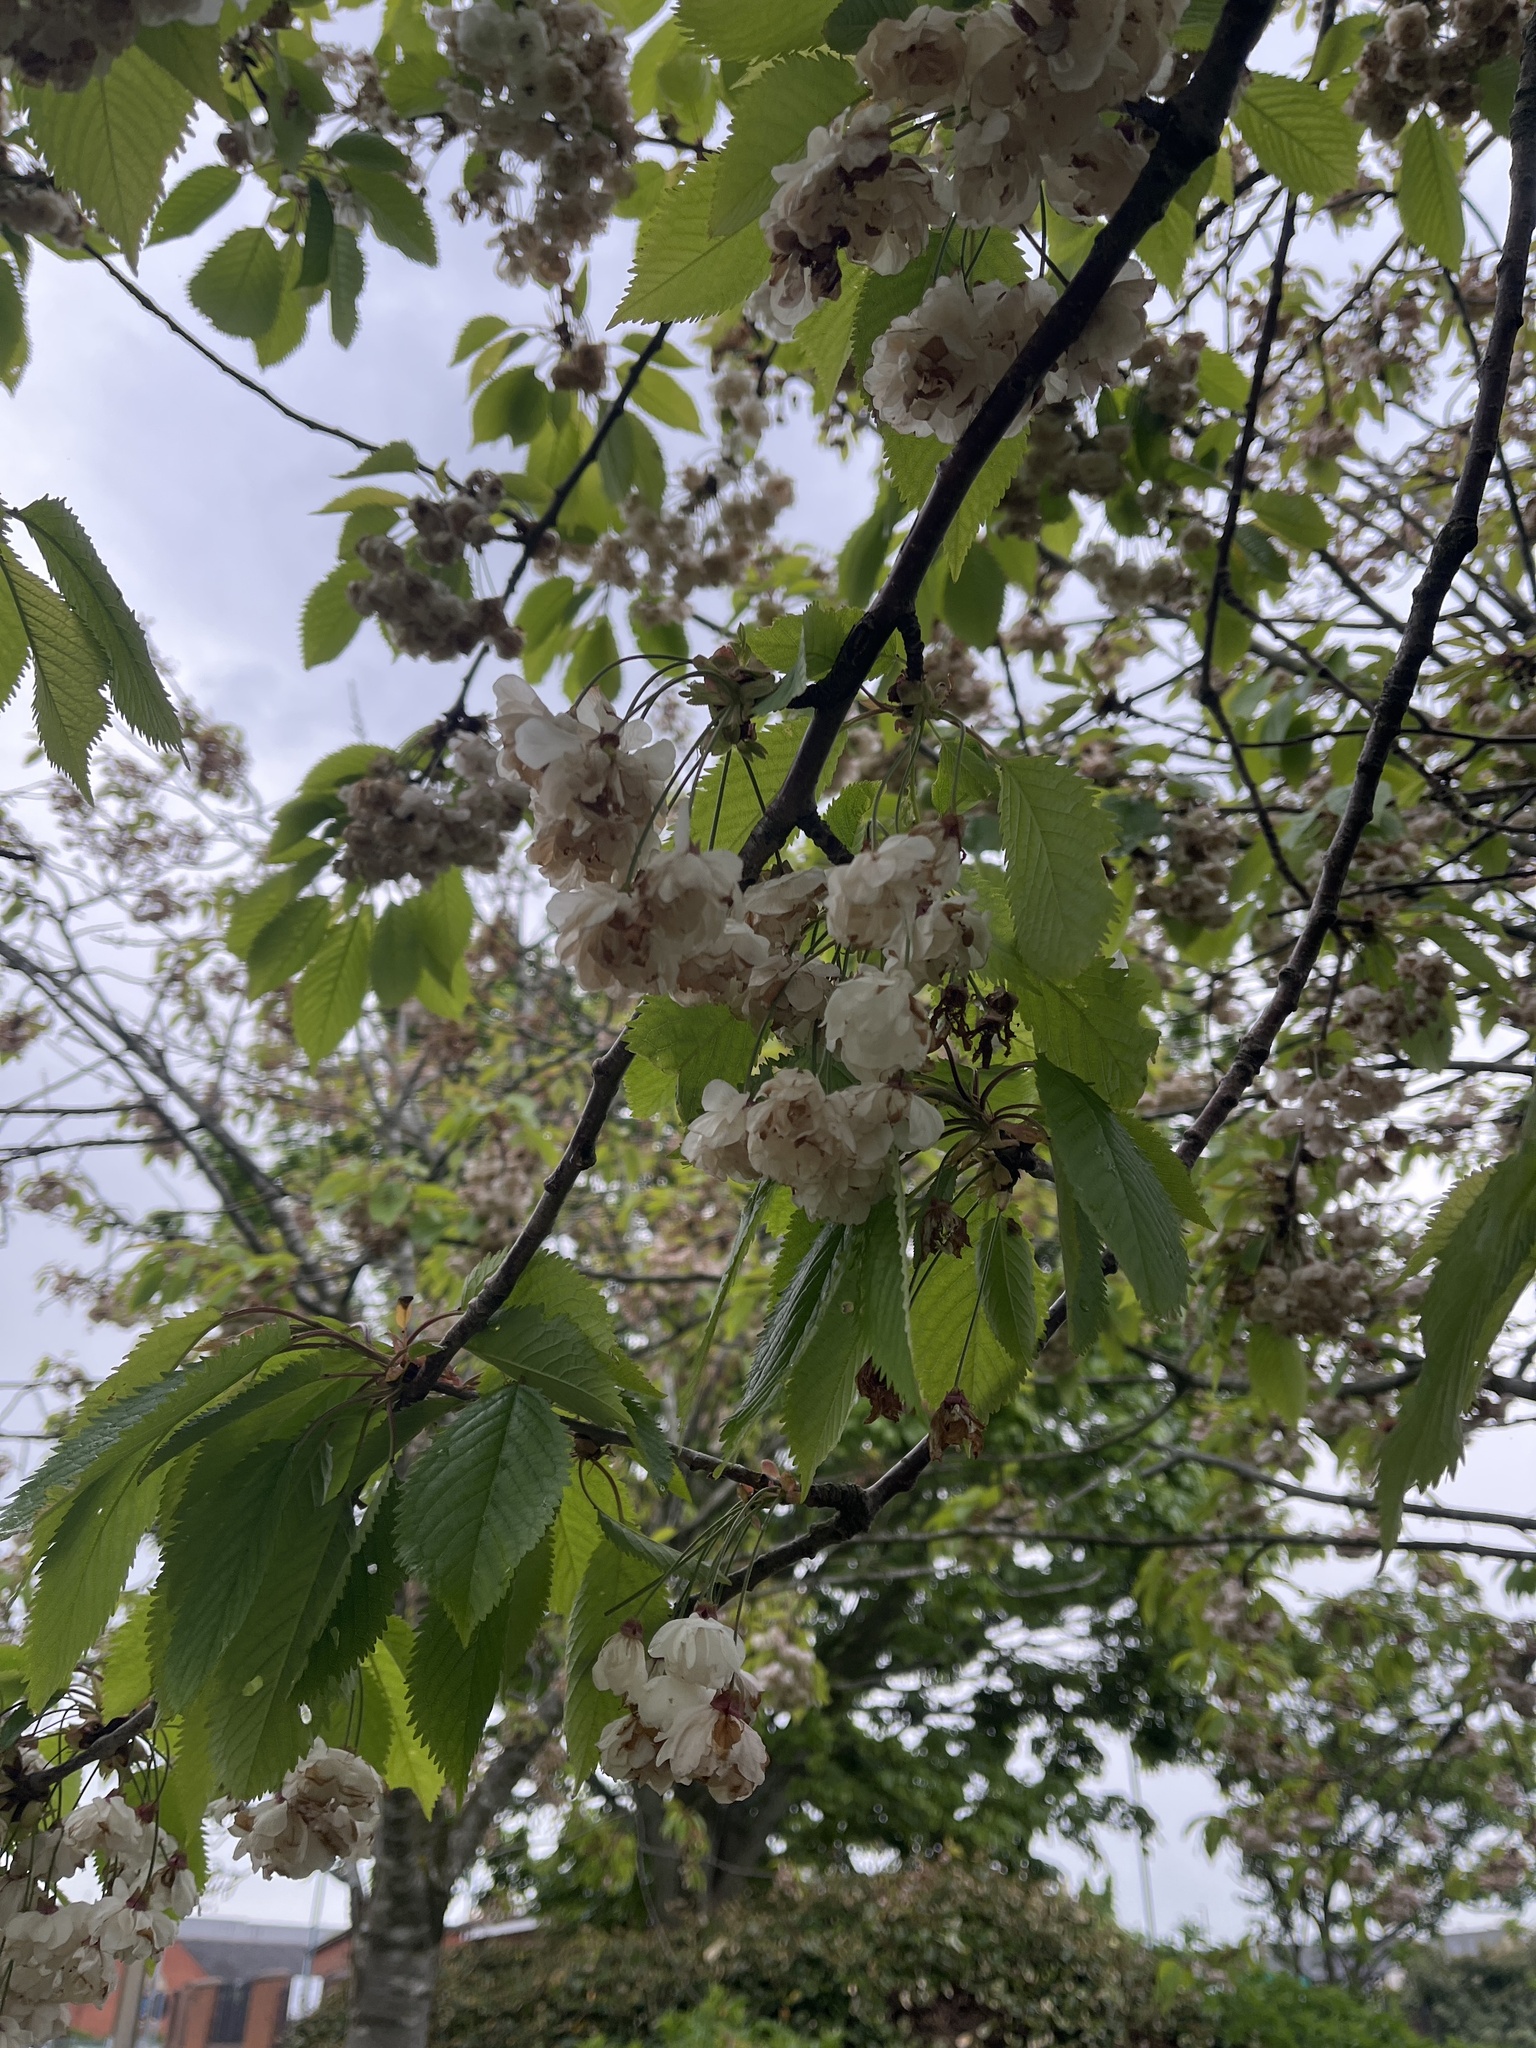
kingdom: Plantae
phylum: Tracheophyta
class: Magnoliopsida
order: Rosales
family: Rosaceae
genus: Prunus
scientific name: Prunus avium
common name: Sweet cherry
